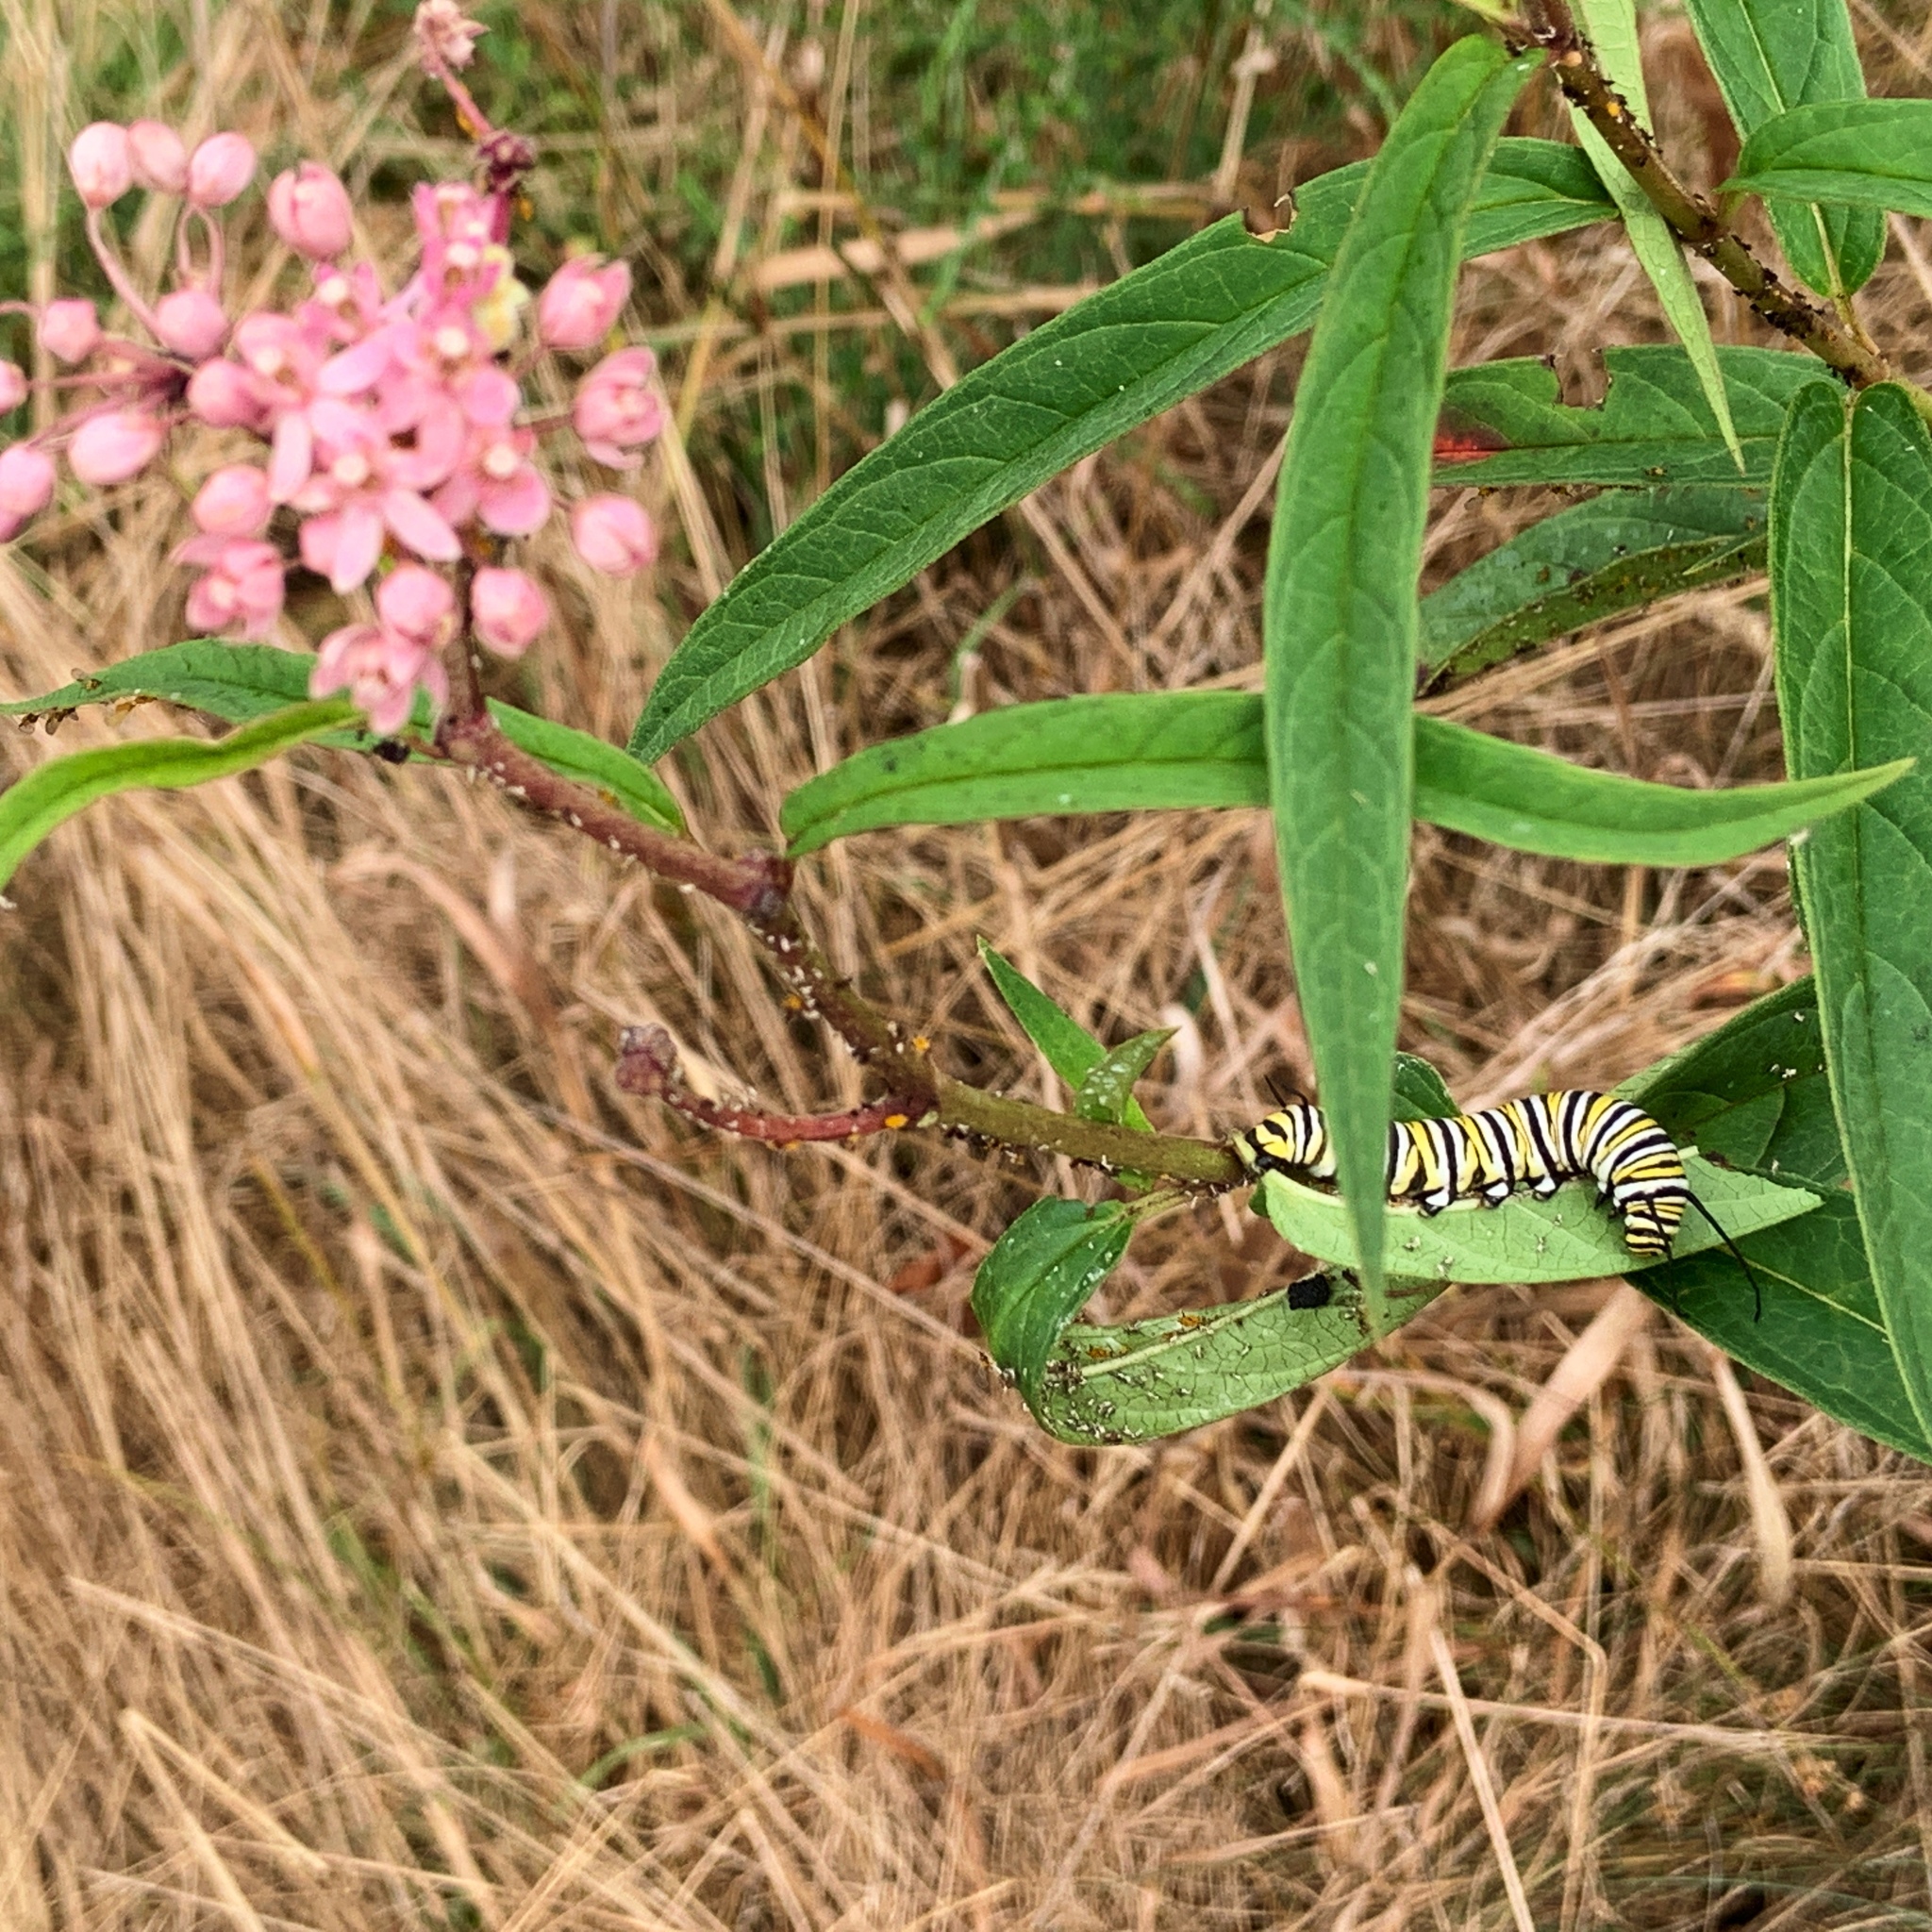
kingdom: Animalia
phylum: Arthropoda
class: Insecta
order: Lepidoptera
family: Nymphalidae
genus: Danaus
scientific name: Danaus plexippus
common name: Monarch
